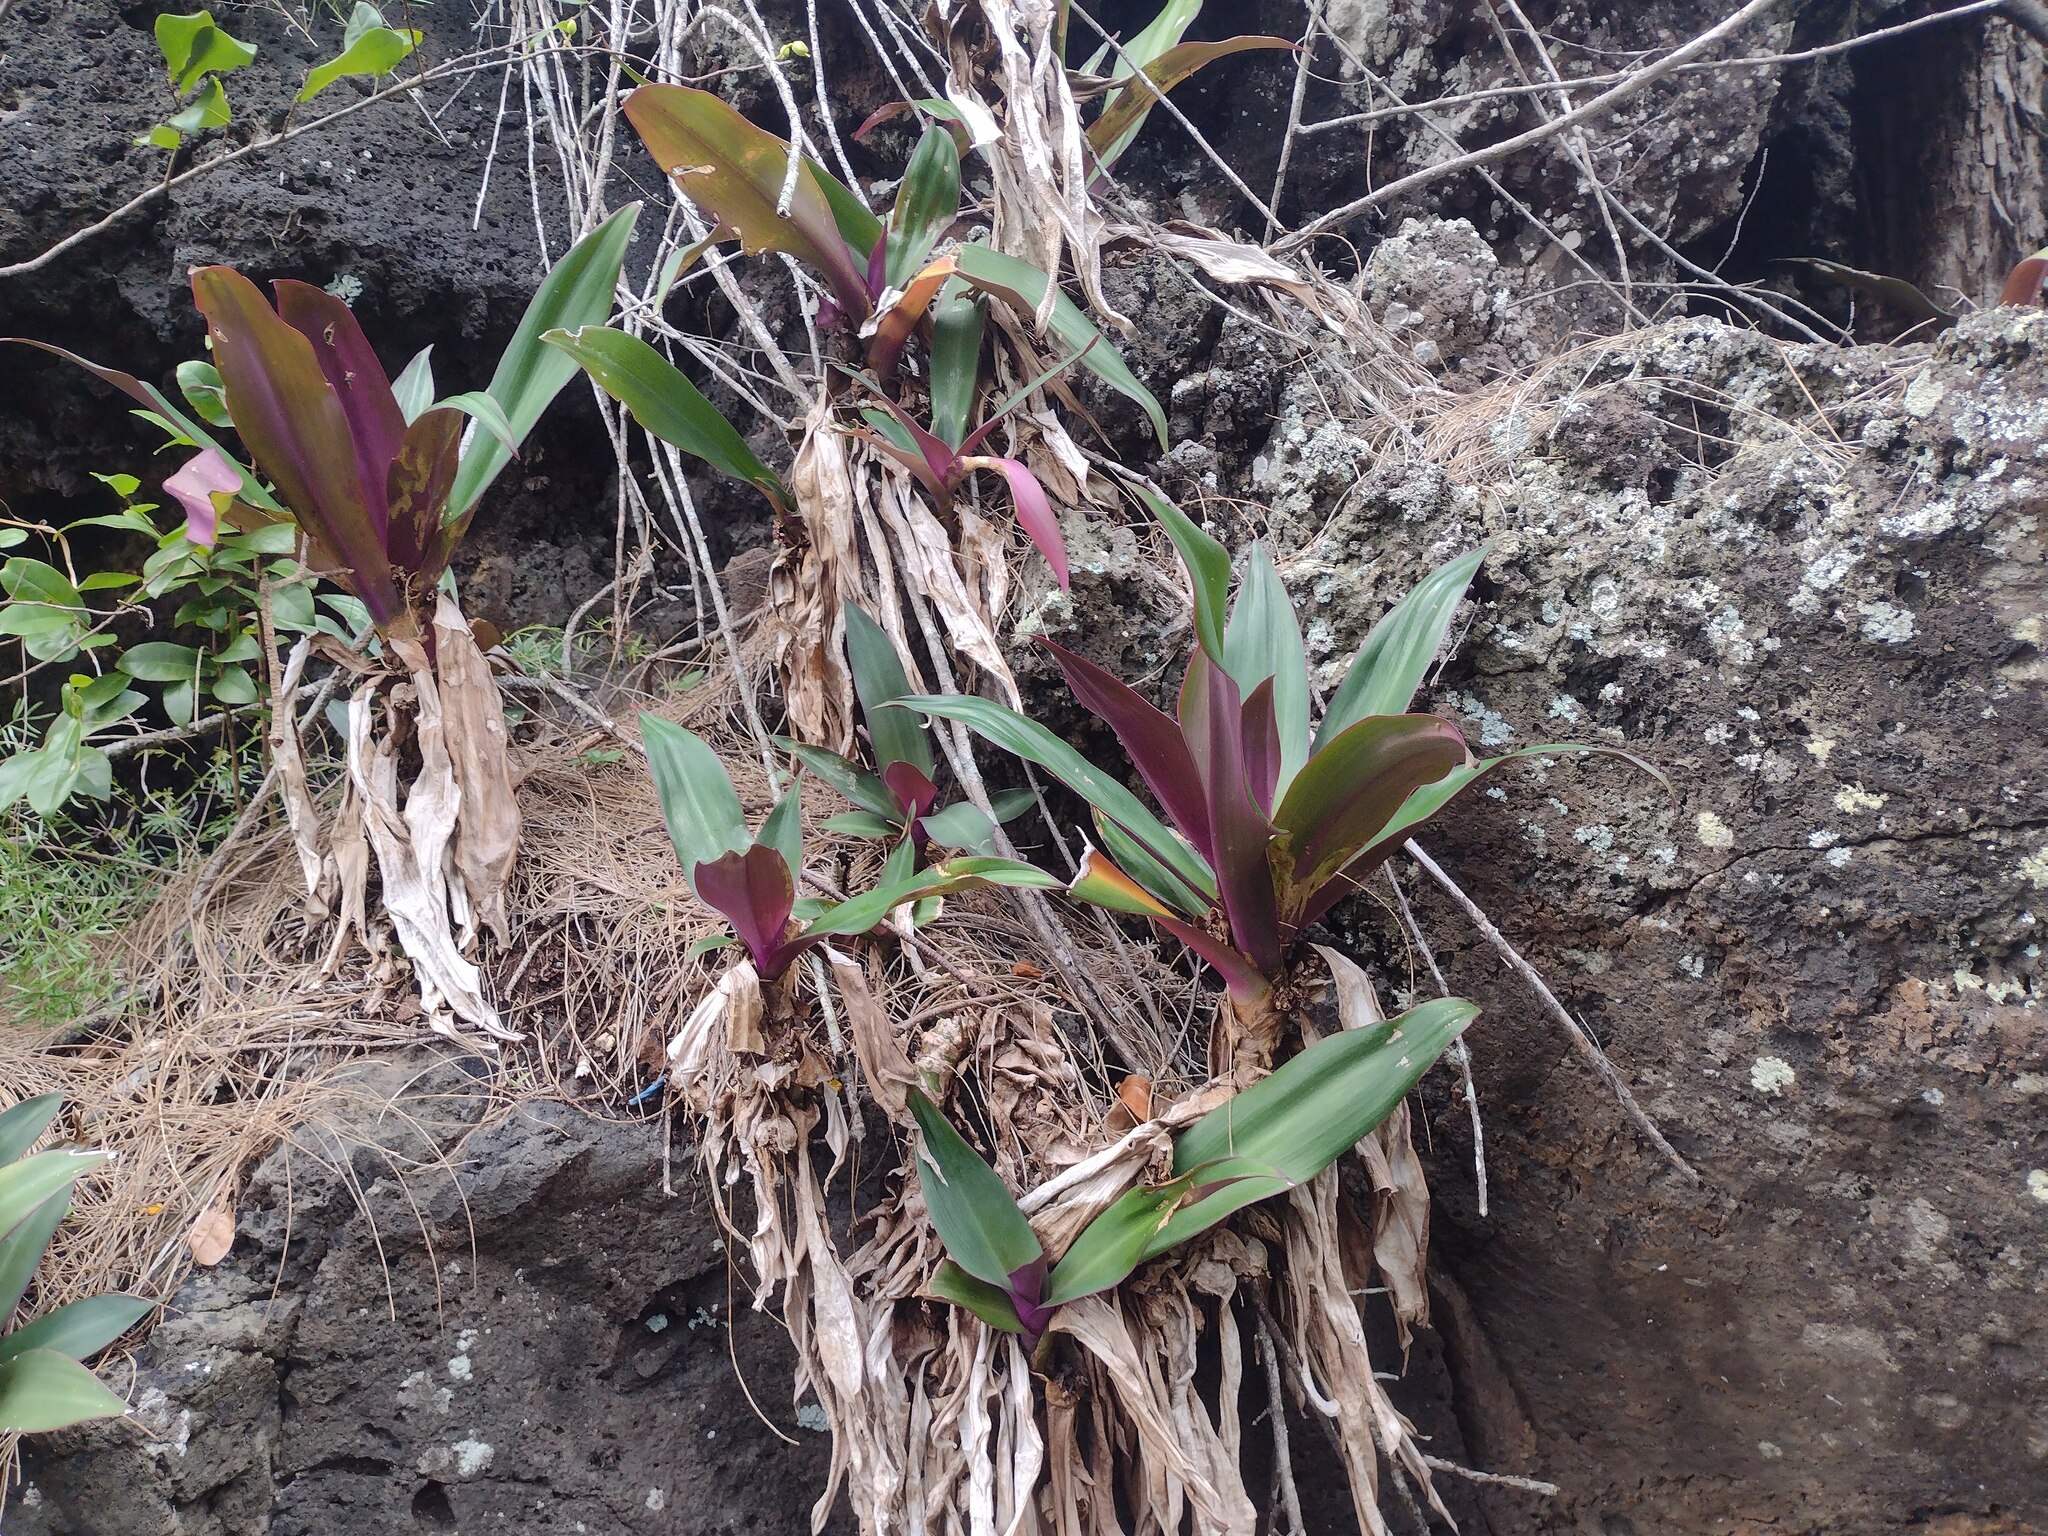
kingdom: Plantae
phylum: Tracheophyta
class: Liliopsida
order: Commelinales
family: Commelinaceae
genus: Tradescantia
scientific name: Tradescantia spathacea
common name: Boatlily
